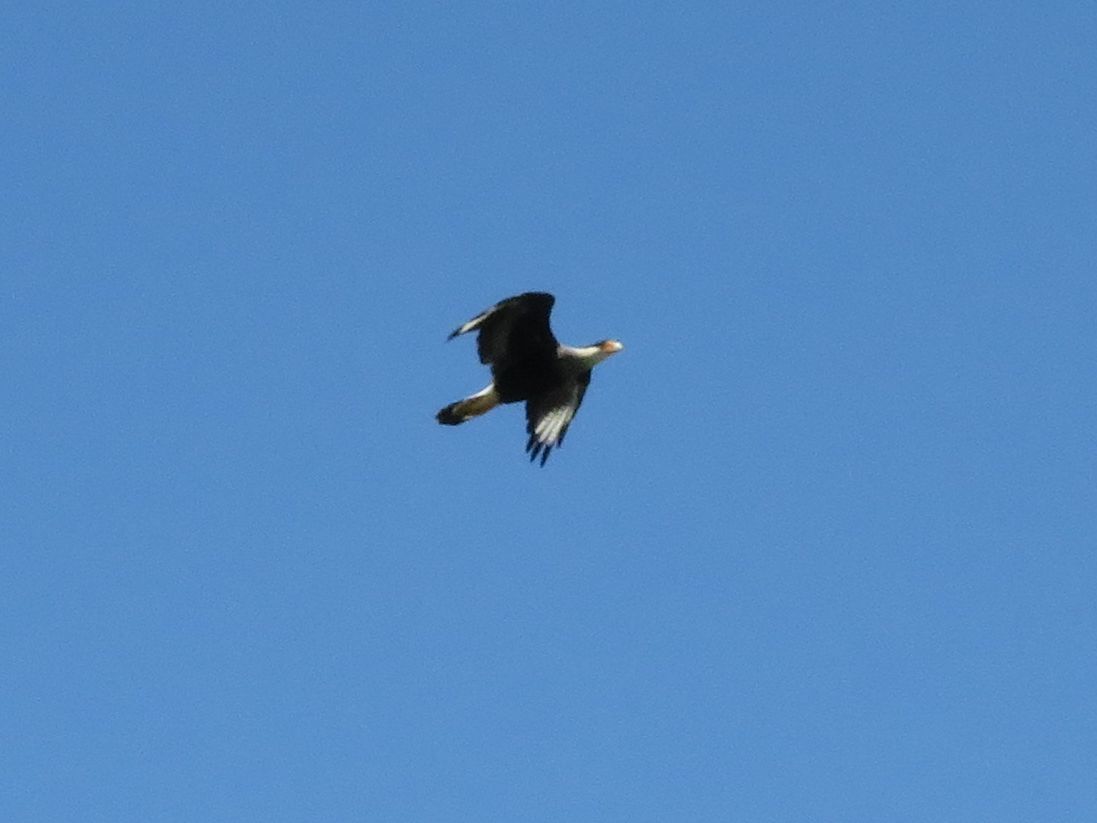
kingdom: Animalia
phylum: Chordata
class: Aves
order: Falconiformes
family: Falconidae
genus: Caracara
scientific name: Caracara plancus
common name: Southern caracara
